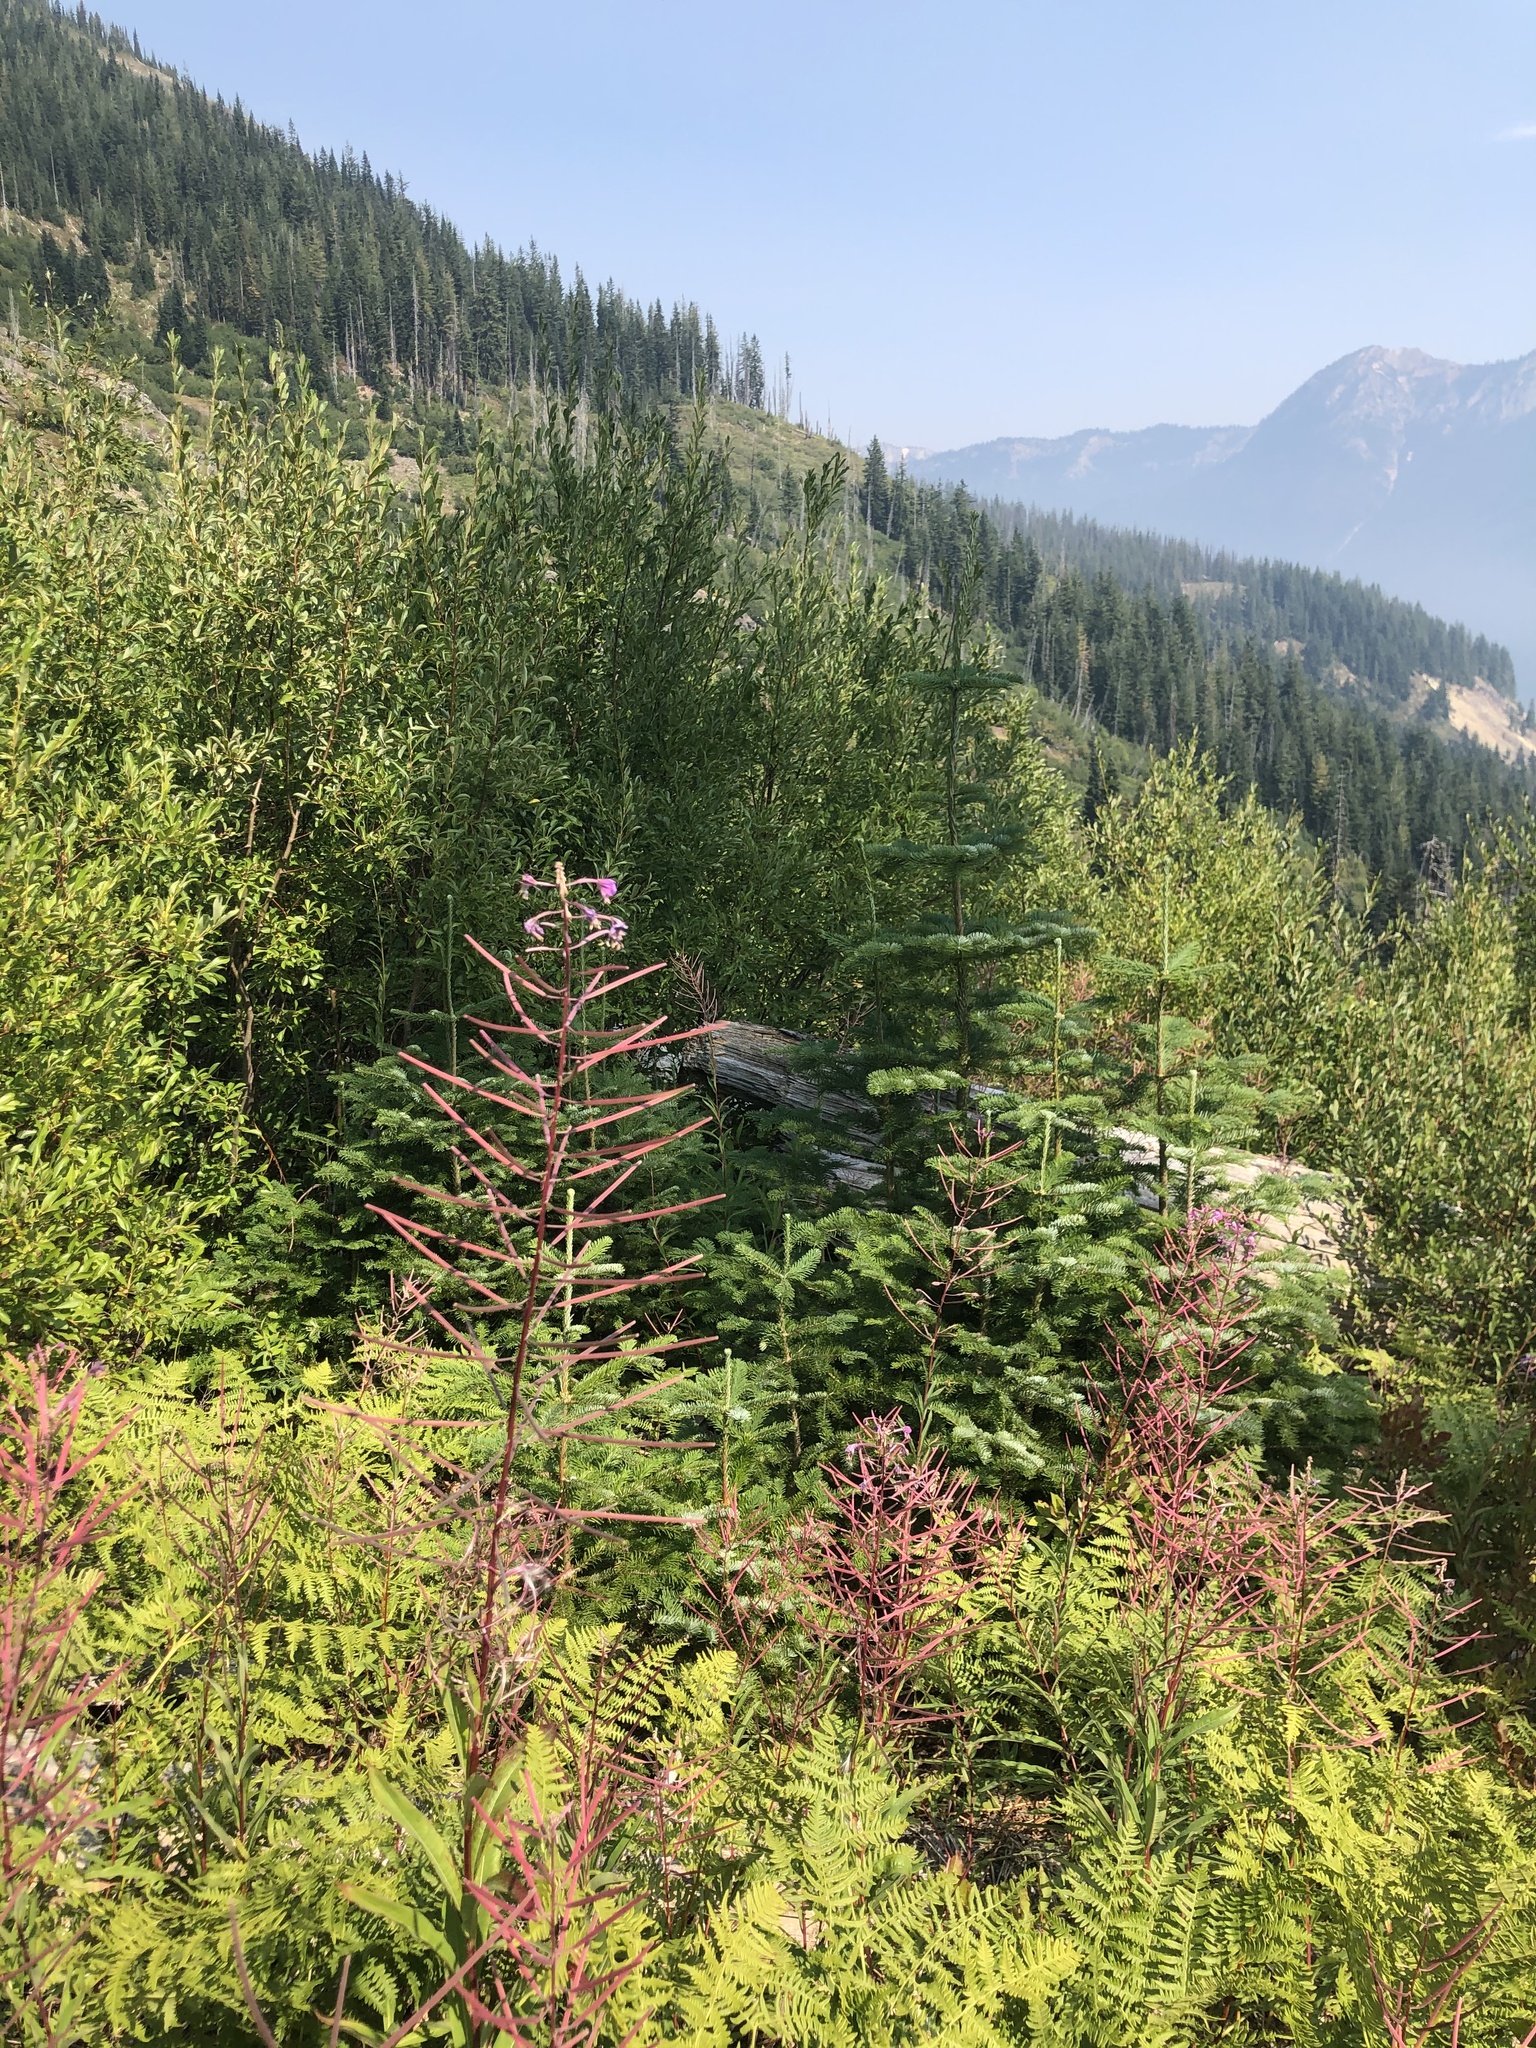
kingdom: Plantae
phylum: Tracheophyta
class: Magnoliopsida
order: Myrtales
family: Onagraceae
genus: Chamaenerion
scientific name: Chamaenerion angustifolium
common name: Fireweed
